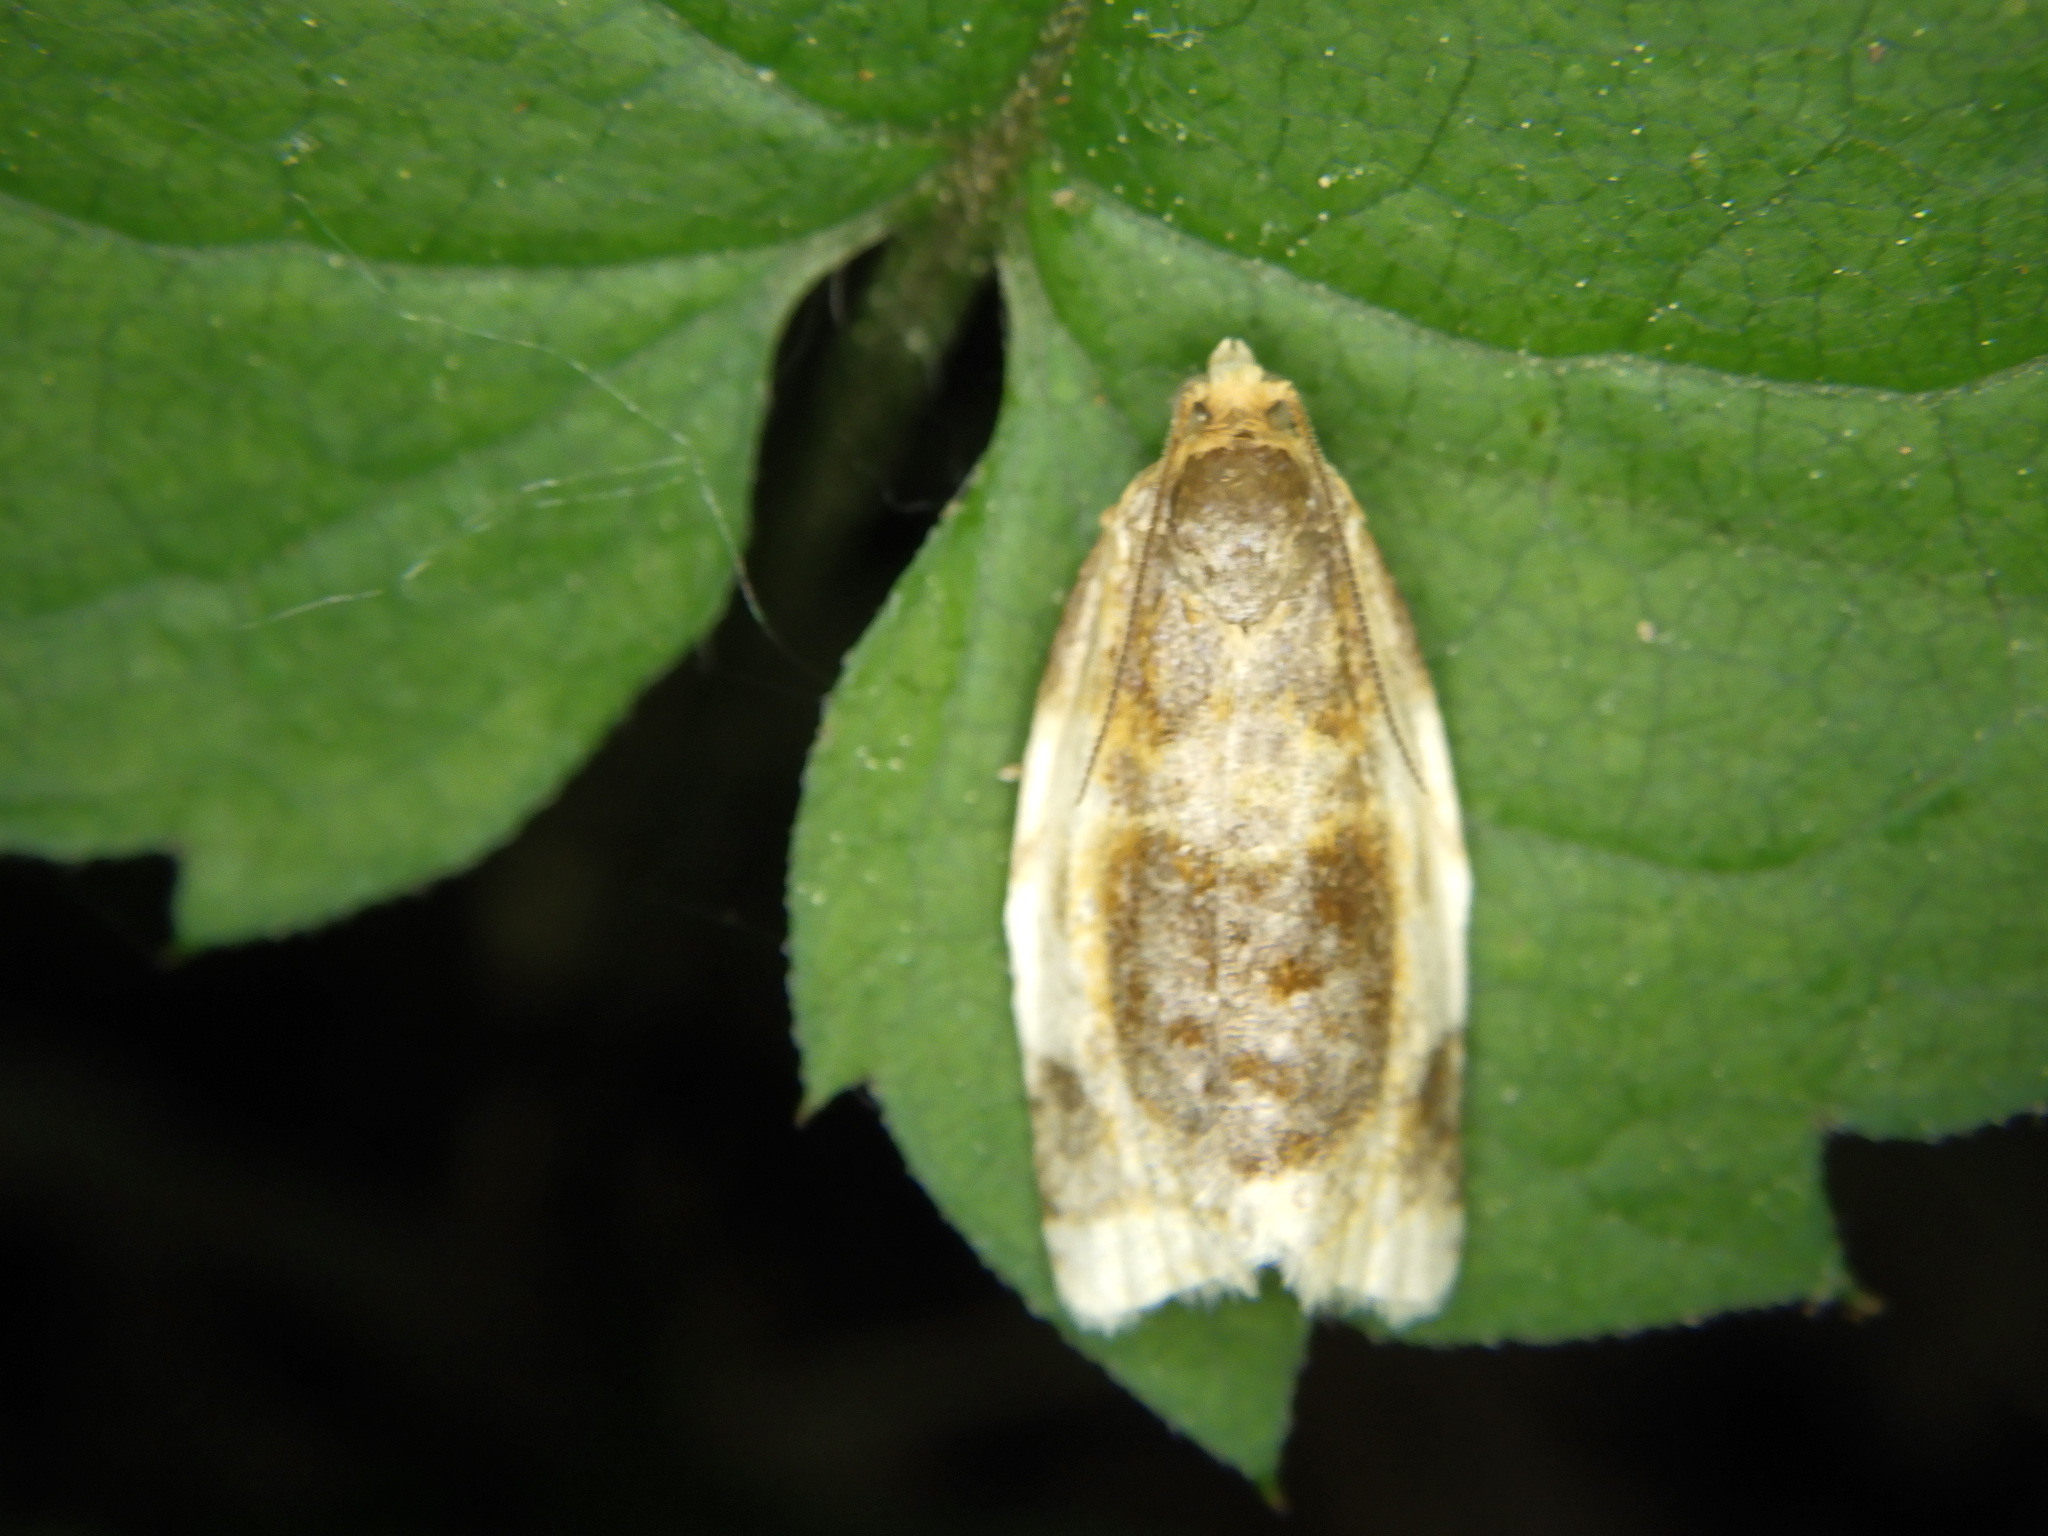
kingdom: Animalia
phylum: Arthropoda
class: Insecta
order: Lepidoptera
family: Tortricidae
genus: Clepsis
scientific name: Clepsis melaleucanus
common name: American apple tortrix
